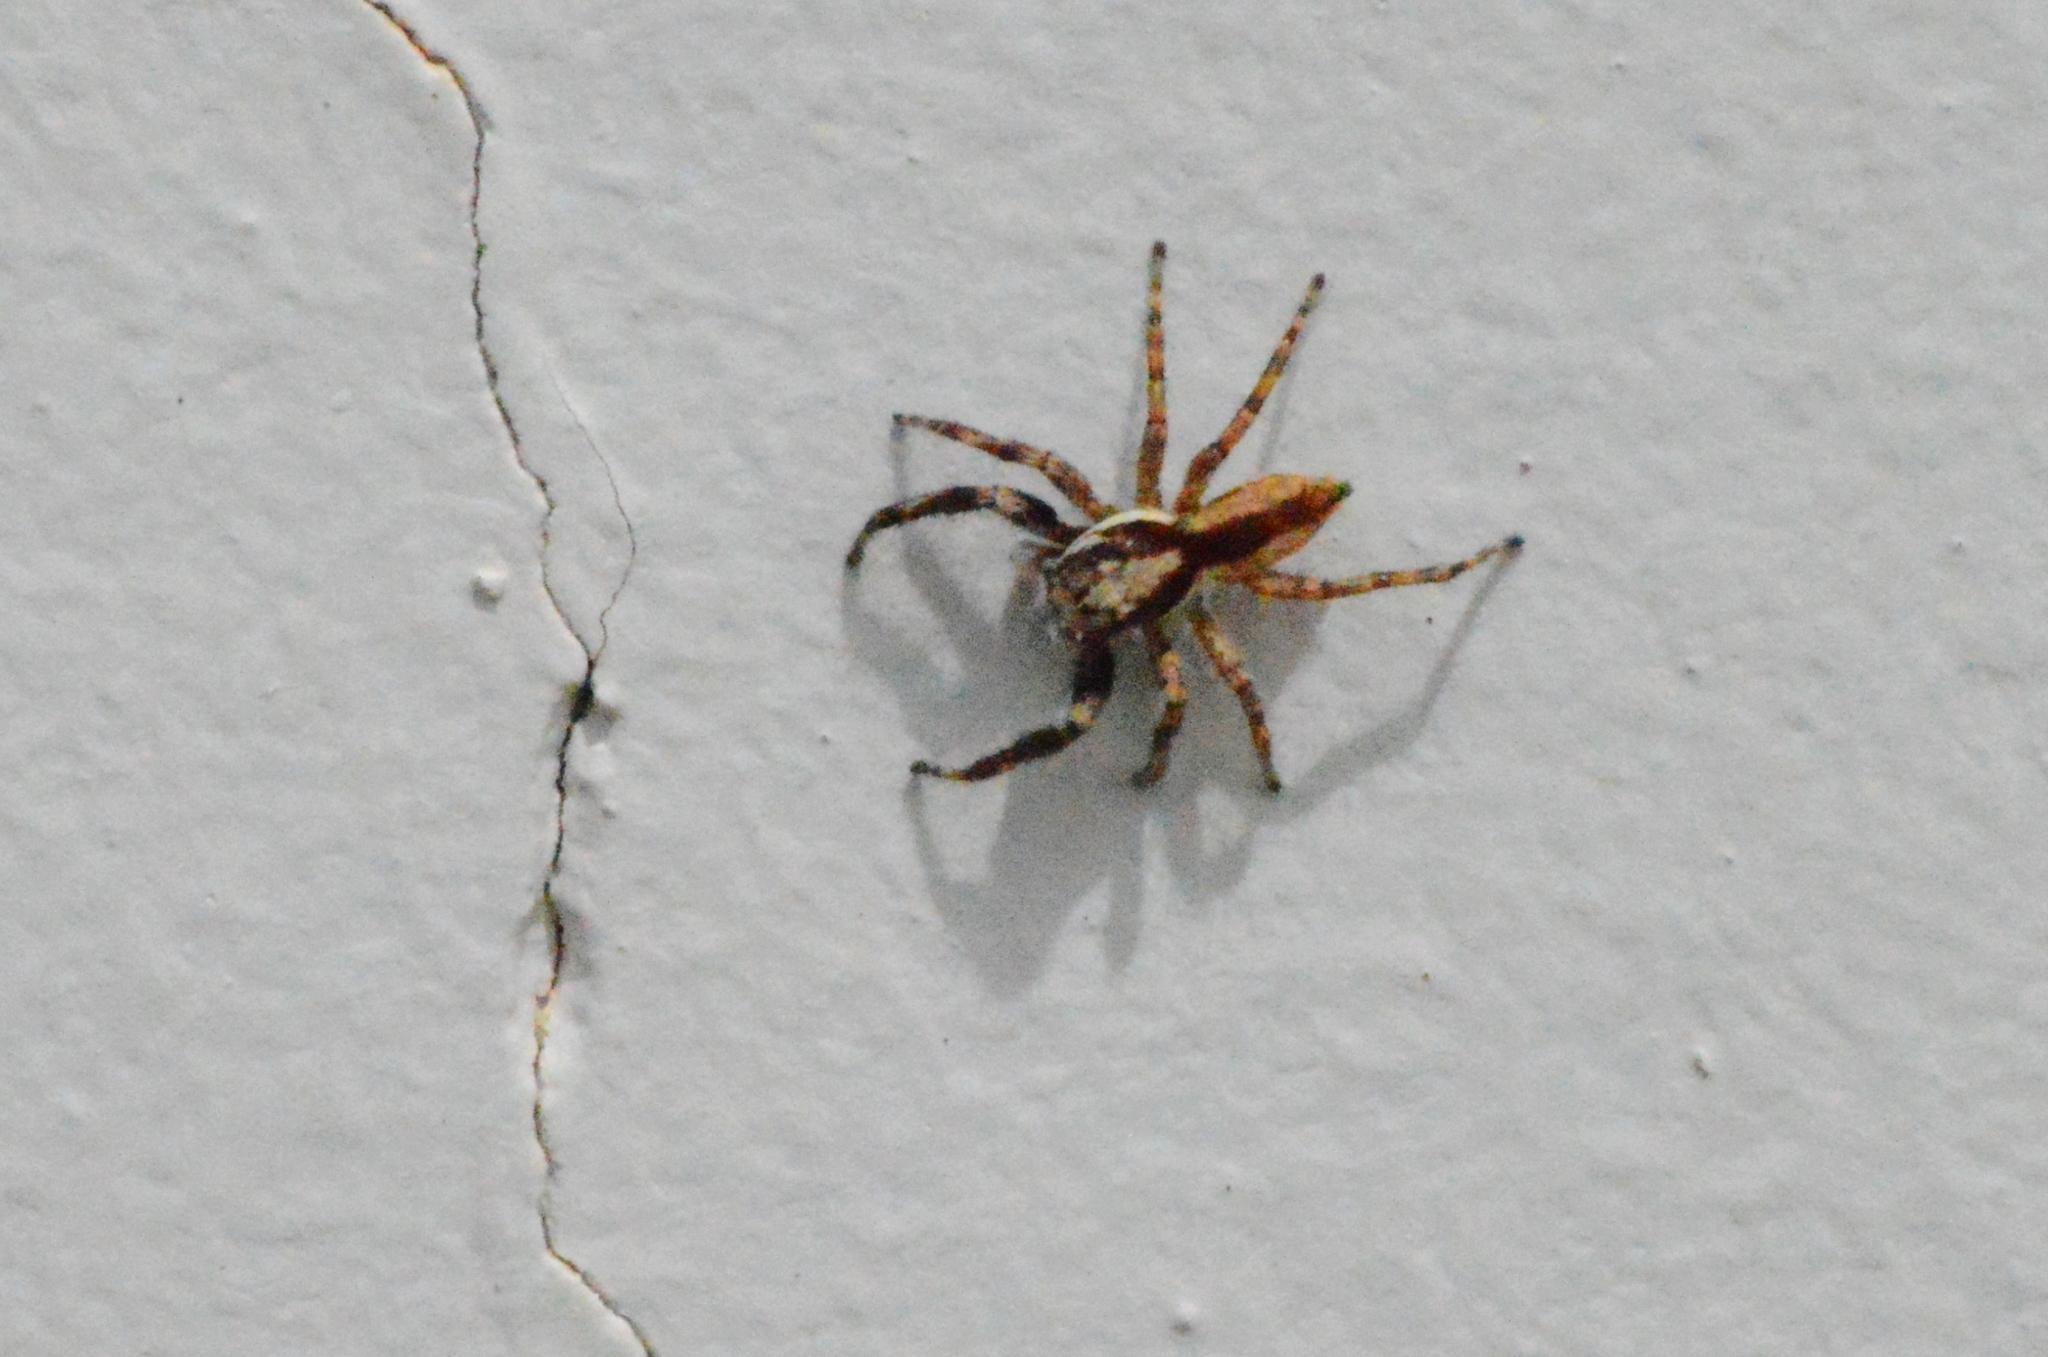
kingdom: Animalia
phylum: Arthropoda
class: Arachnida
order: Araneae
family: Salticidae
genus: Menemerus
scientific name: Menemerus bivittatus
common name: Gray wall jumper
